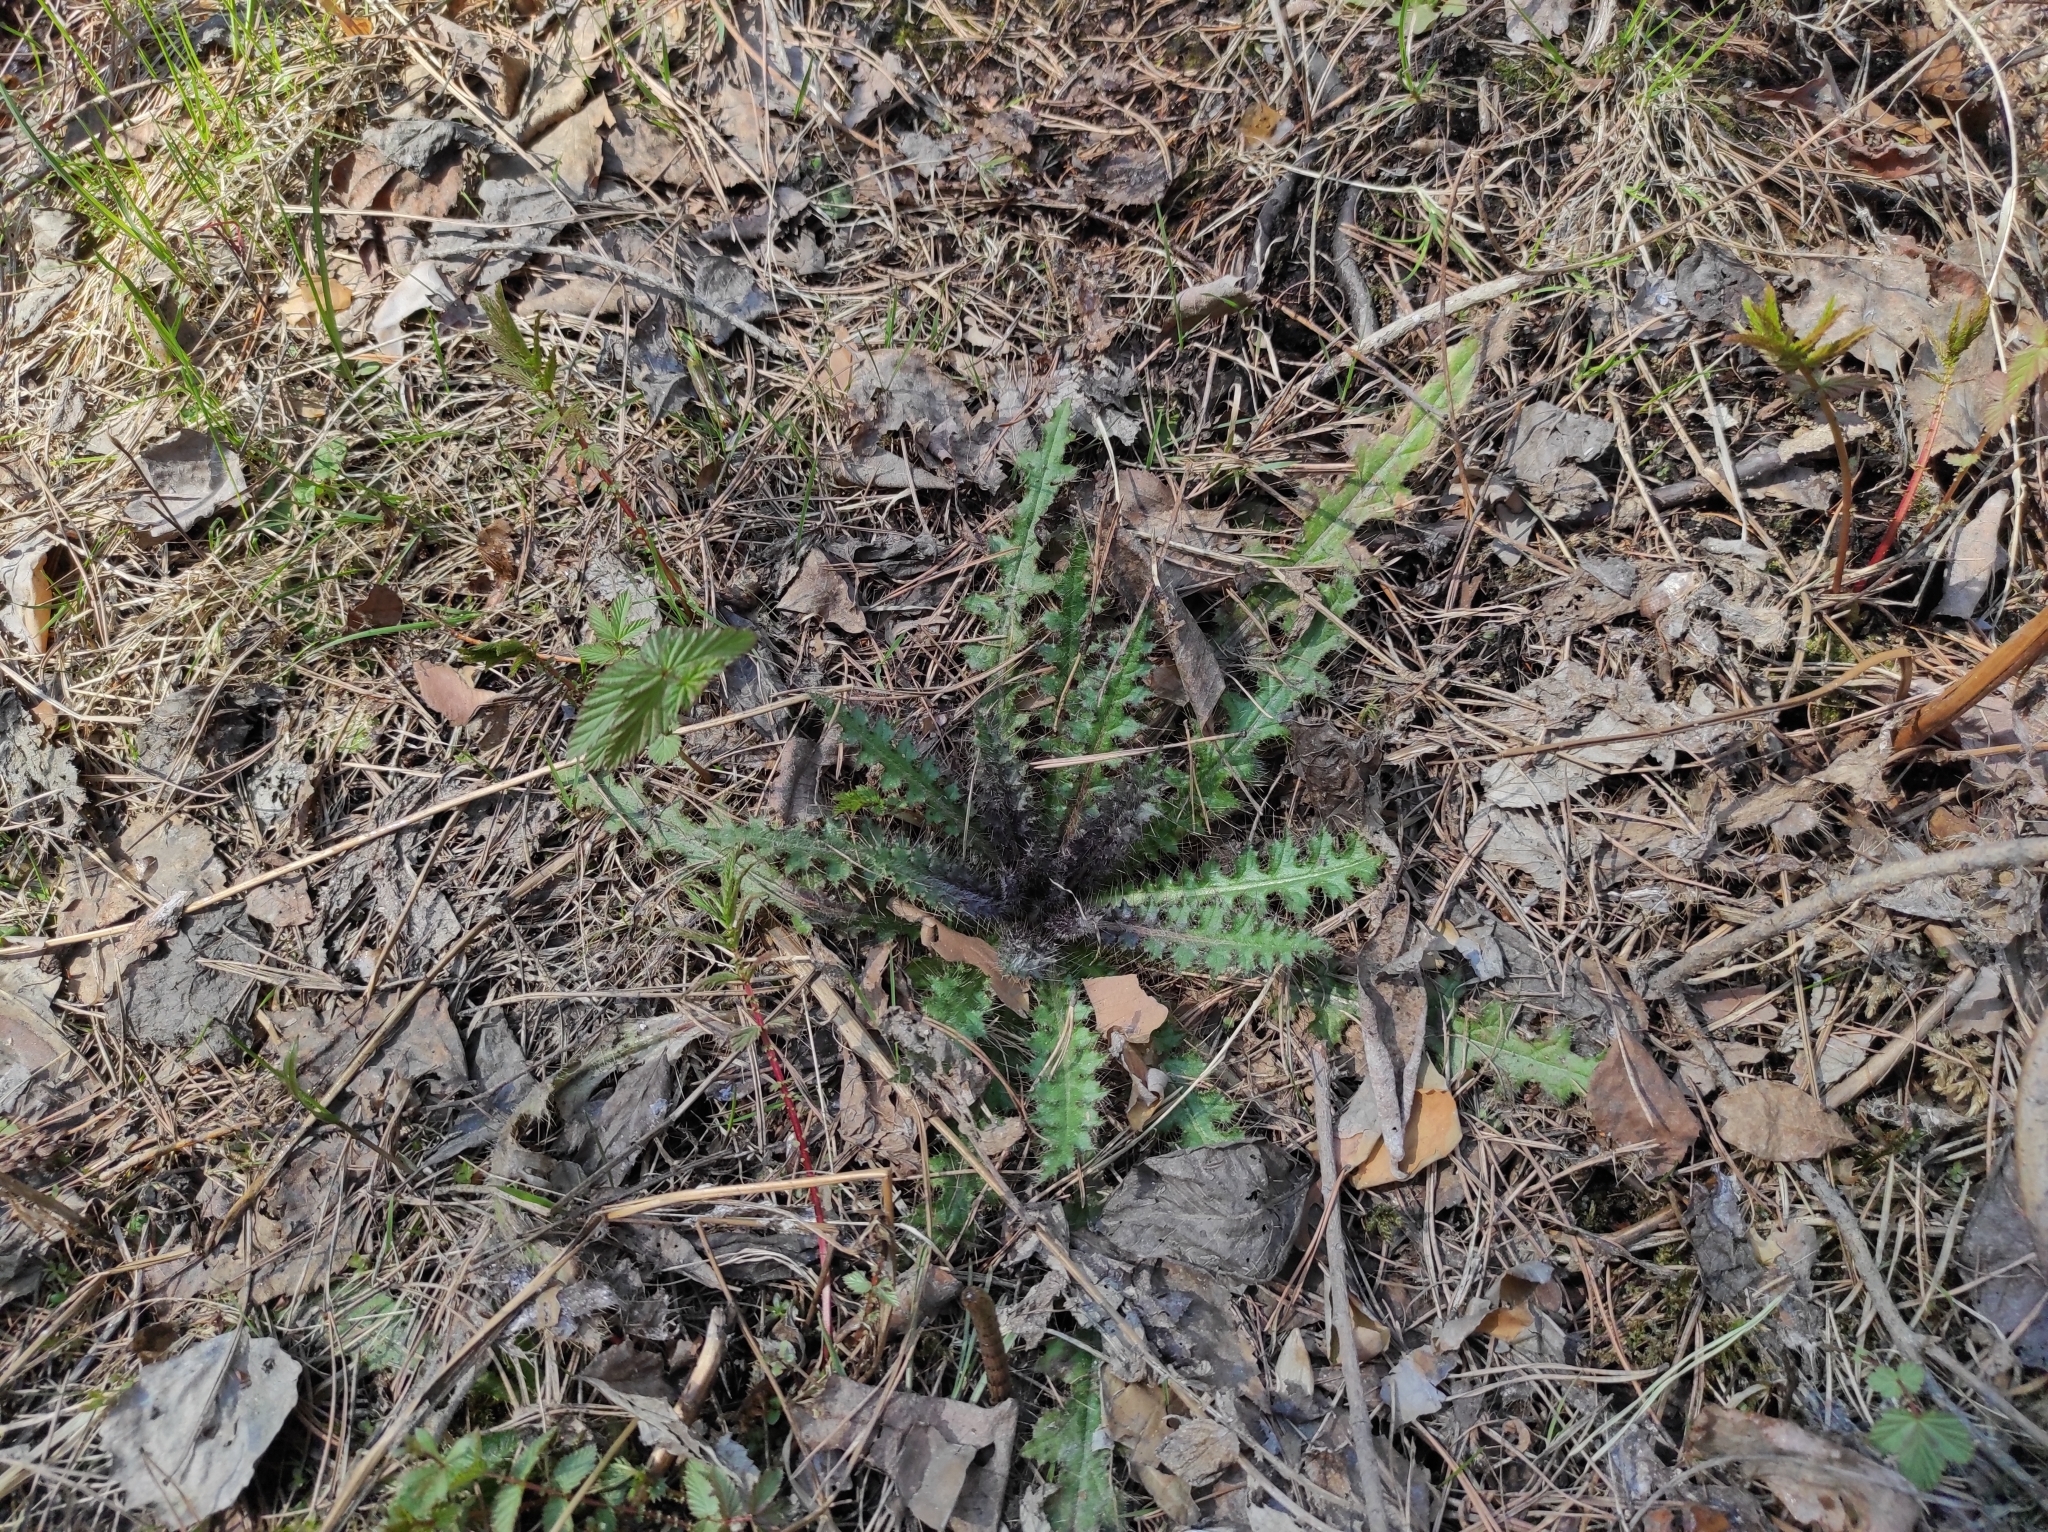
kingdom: Plantae
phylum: Tracheophyta
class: Magnoliopsida
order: Asterales
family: Asteraceae
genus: Cirsium
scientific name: Cirsium palustre
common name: Marsh thistle
